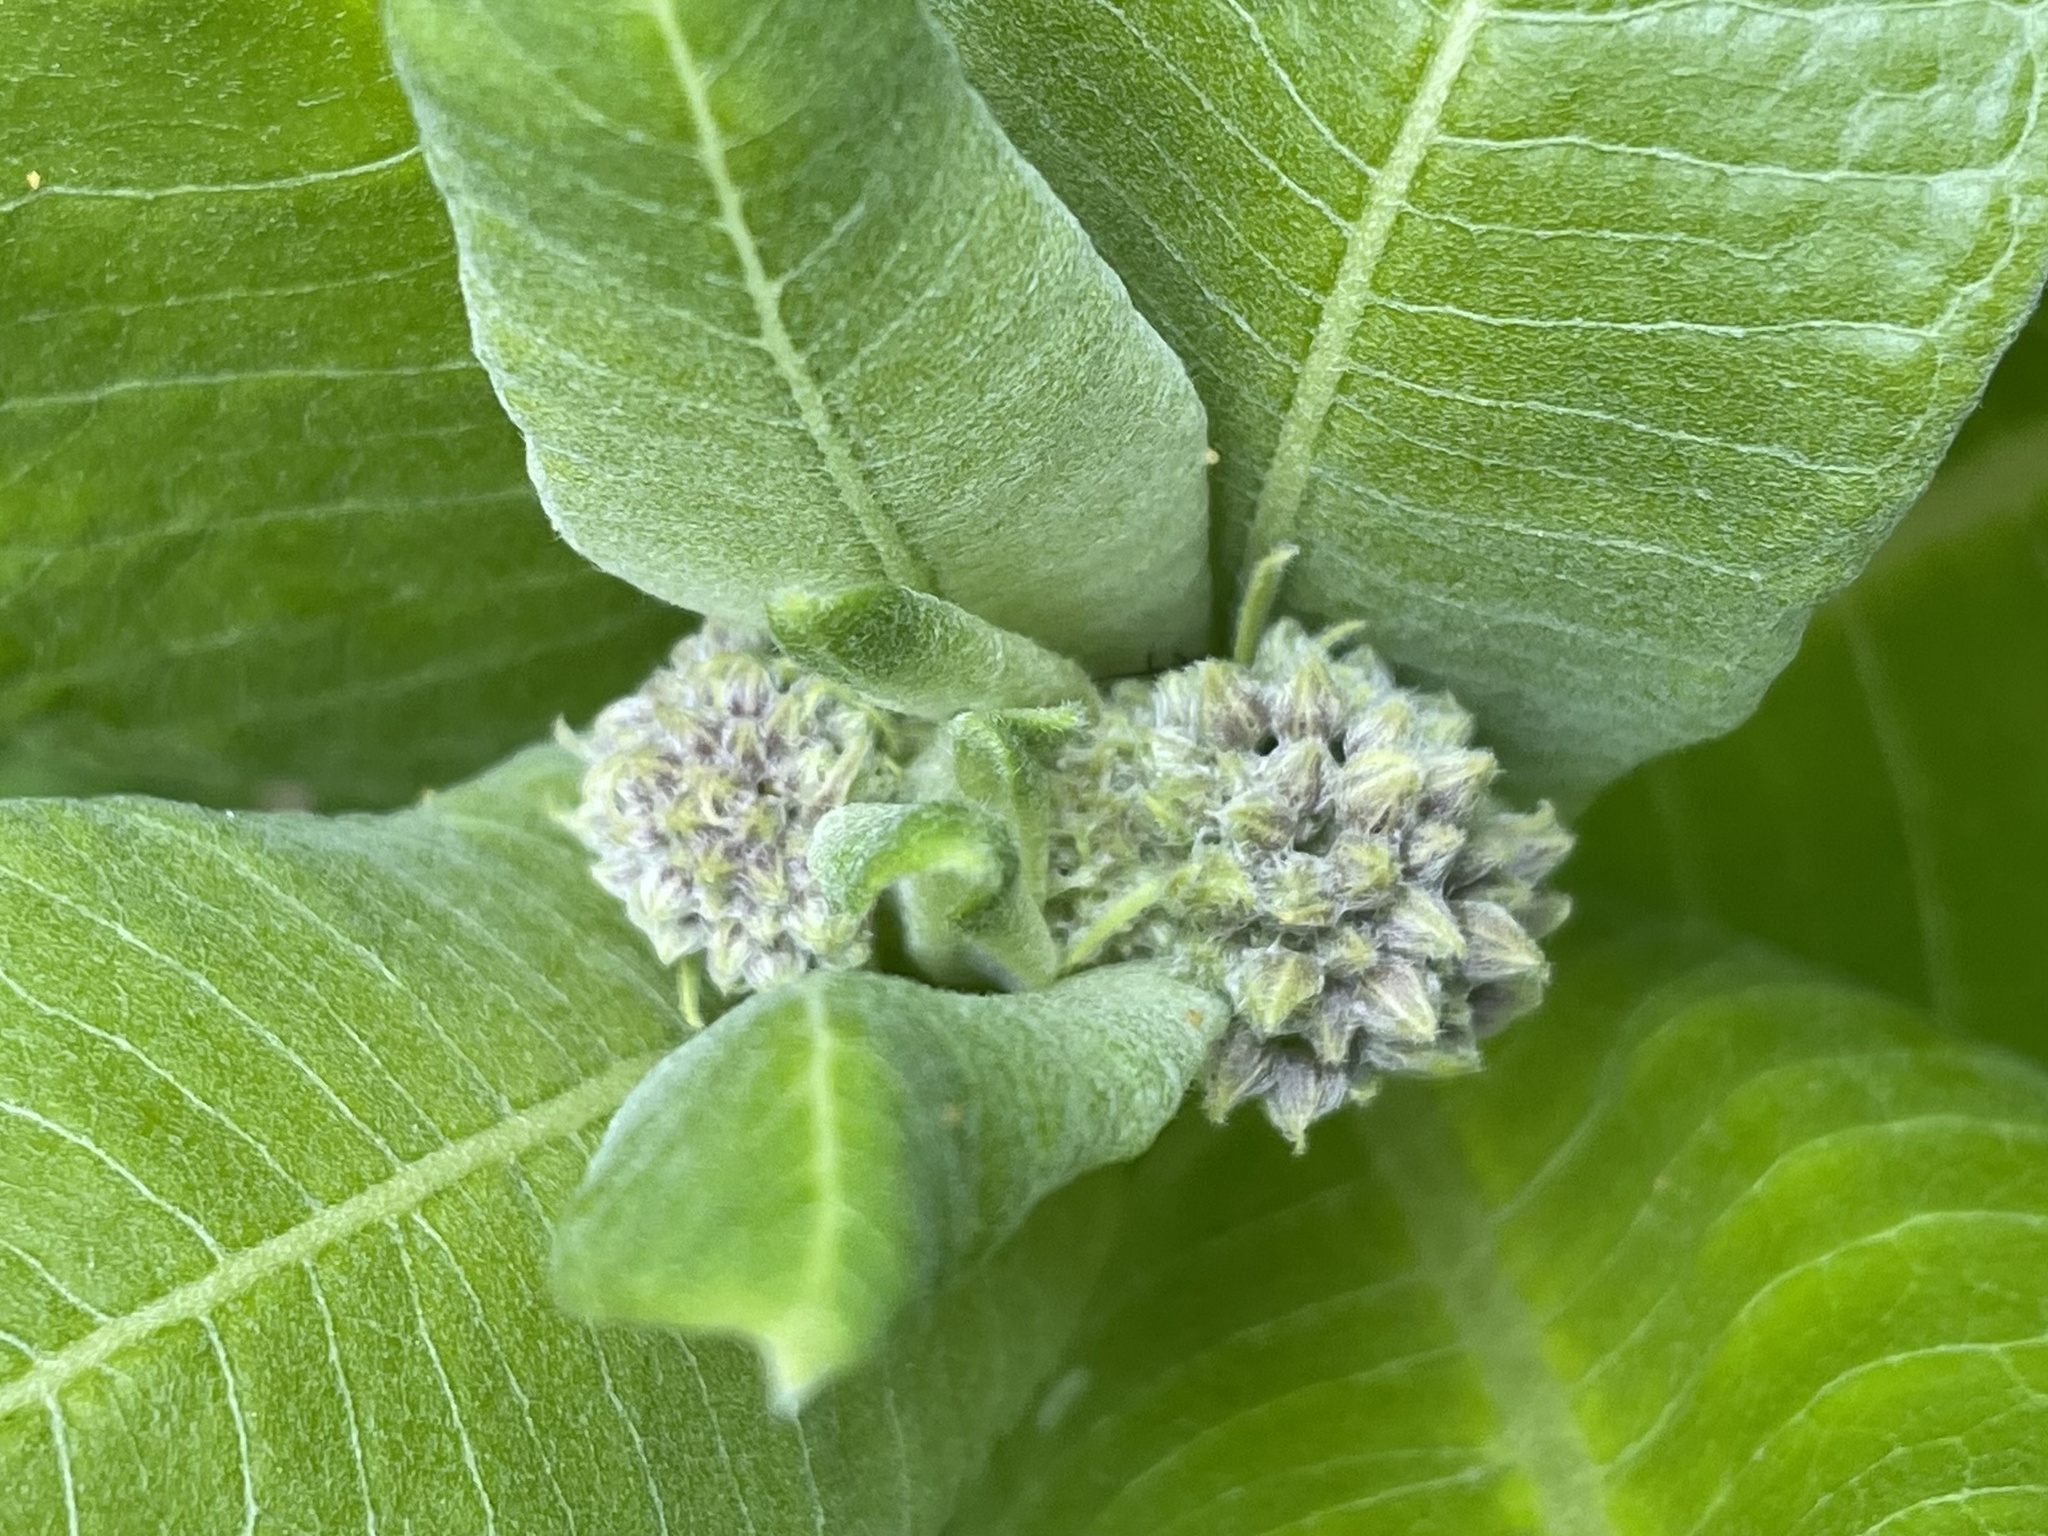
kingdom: Plantae
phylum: Tracheophyta
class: Magnoliopsida
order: Gentianales
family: Apocynaceae
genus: Asclepias
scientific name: Asclepias syriaca
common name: Common milkweed
